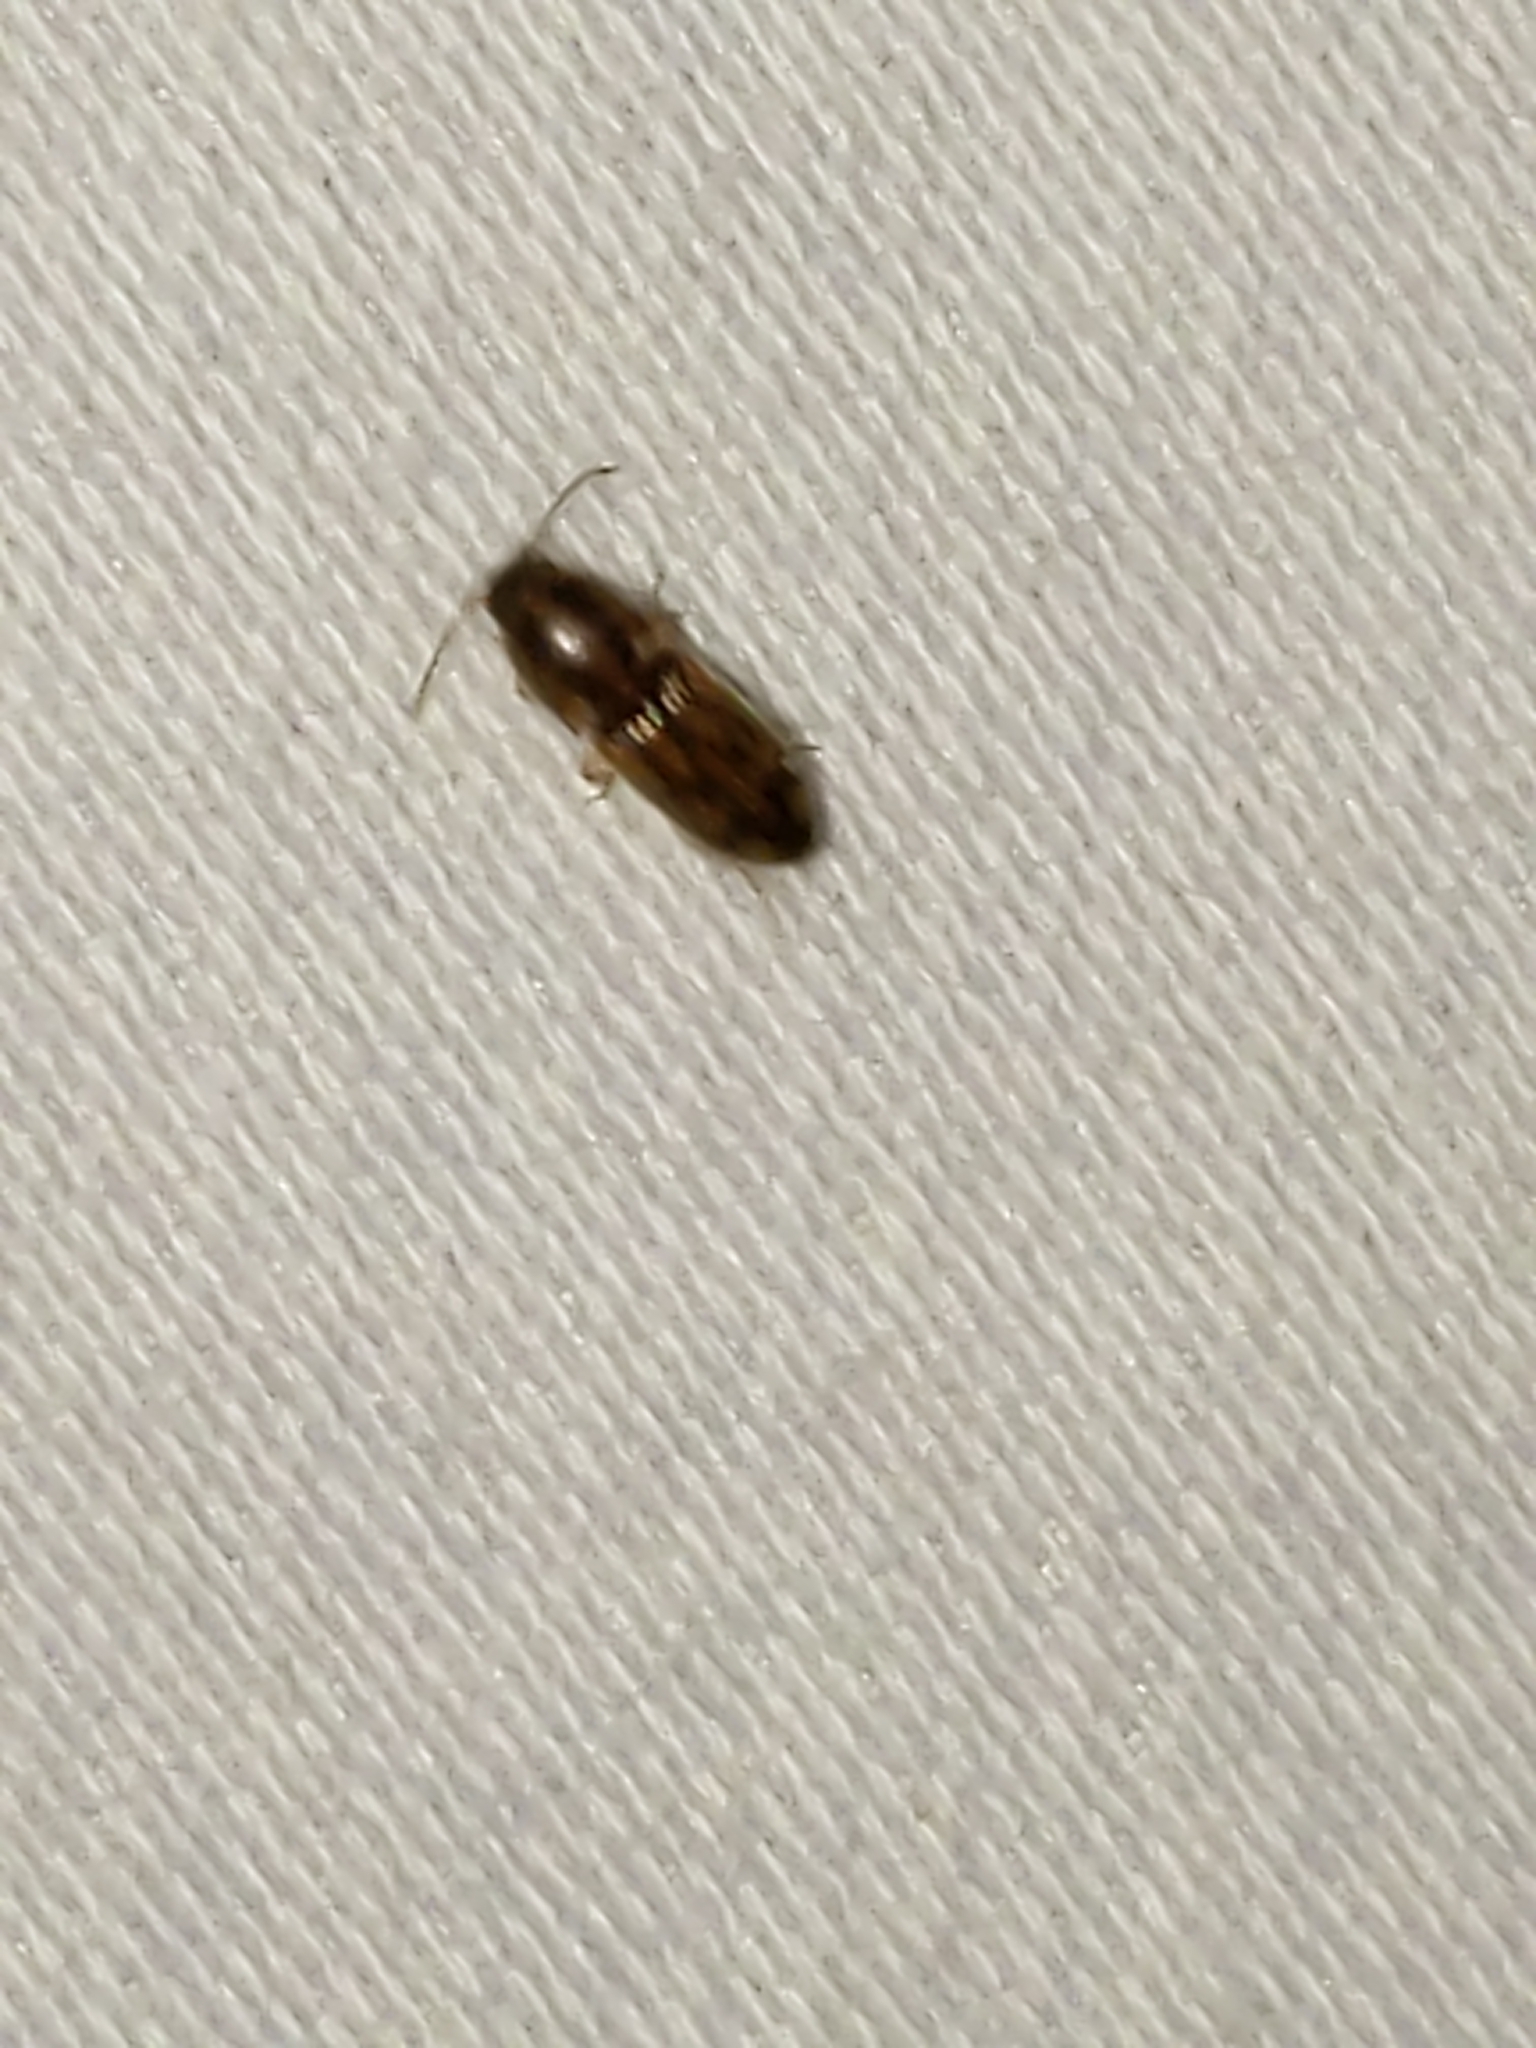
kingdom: Animalia
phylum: Arthropoda
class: Insecta
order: Coleoptera
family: Elateridae
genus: Monocrepidius
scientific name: Monocrepidius bellus
